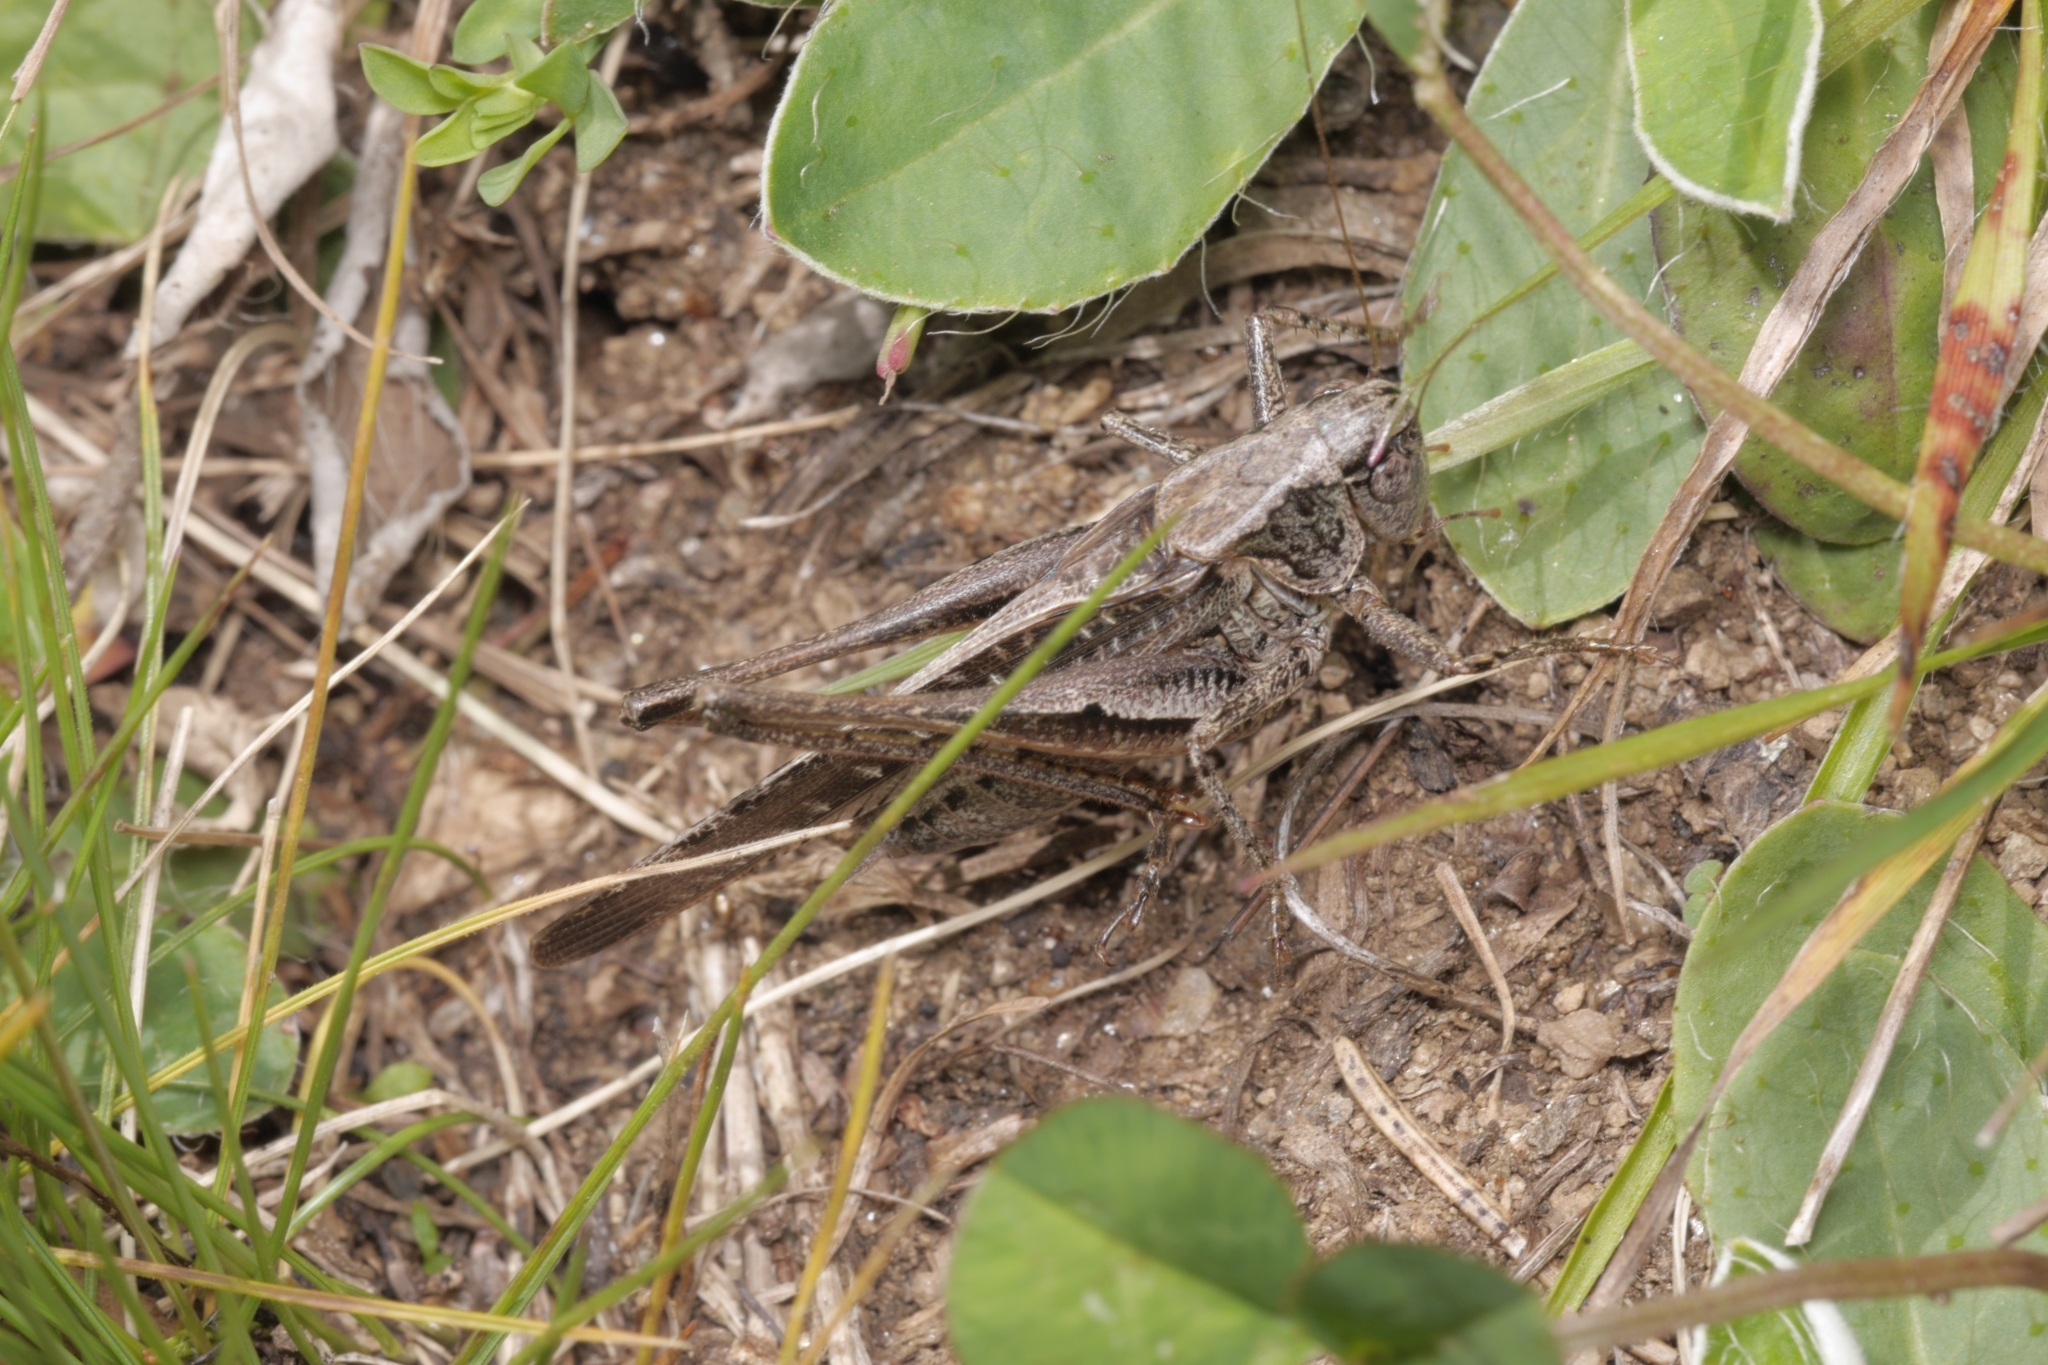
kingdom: Animalia
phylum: Arthropoda
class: Insecta
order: Orthoptera
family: Tettigoniidae
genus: Platycleis
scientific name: Platycleis grisea
